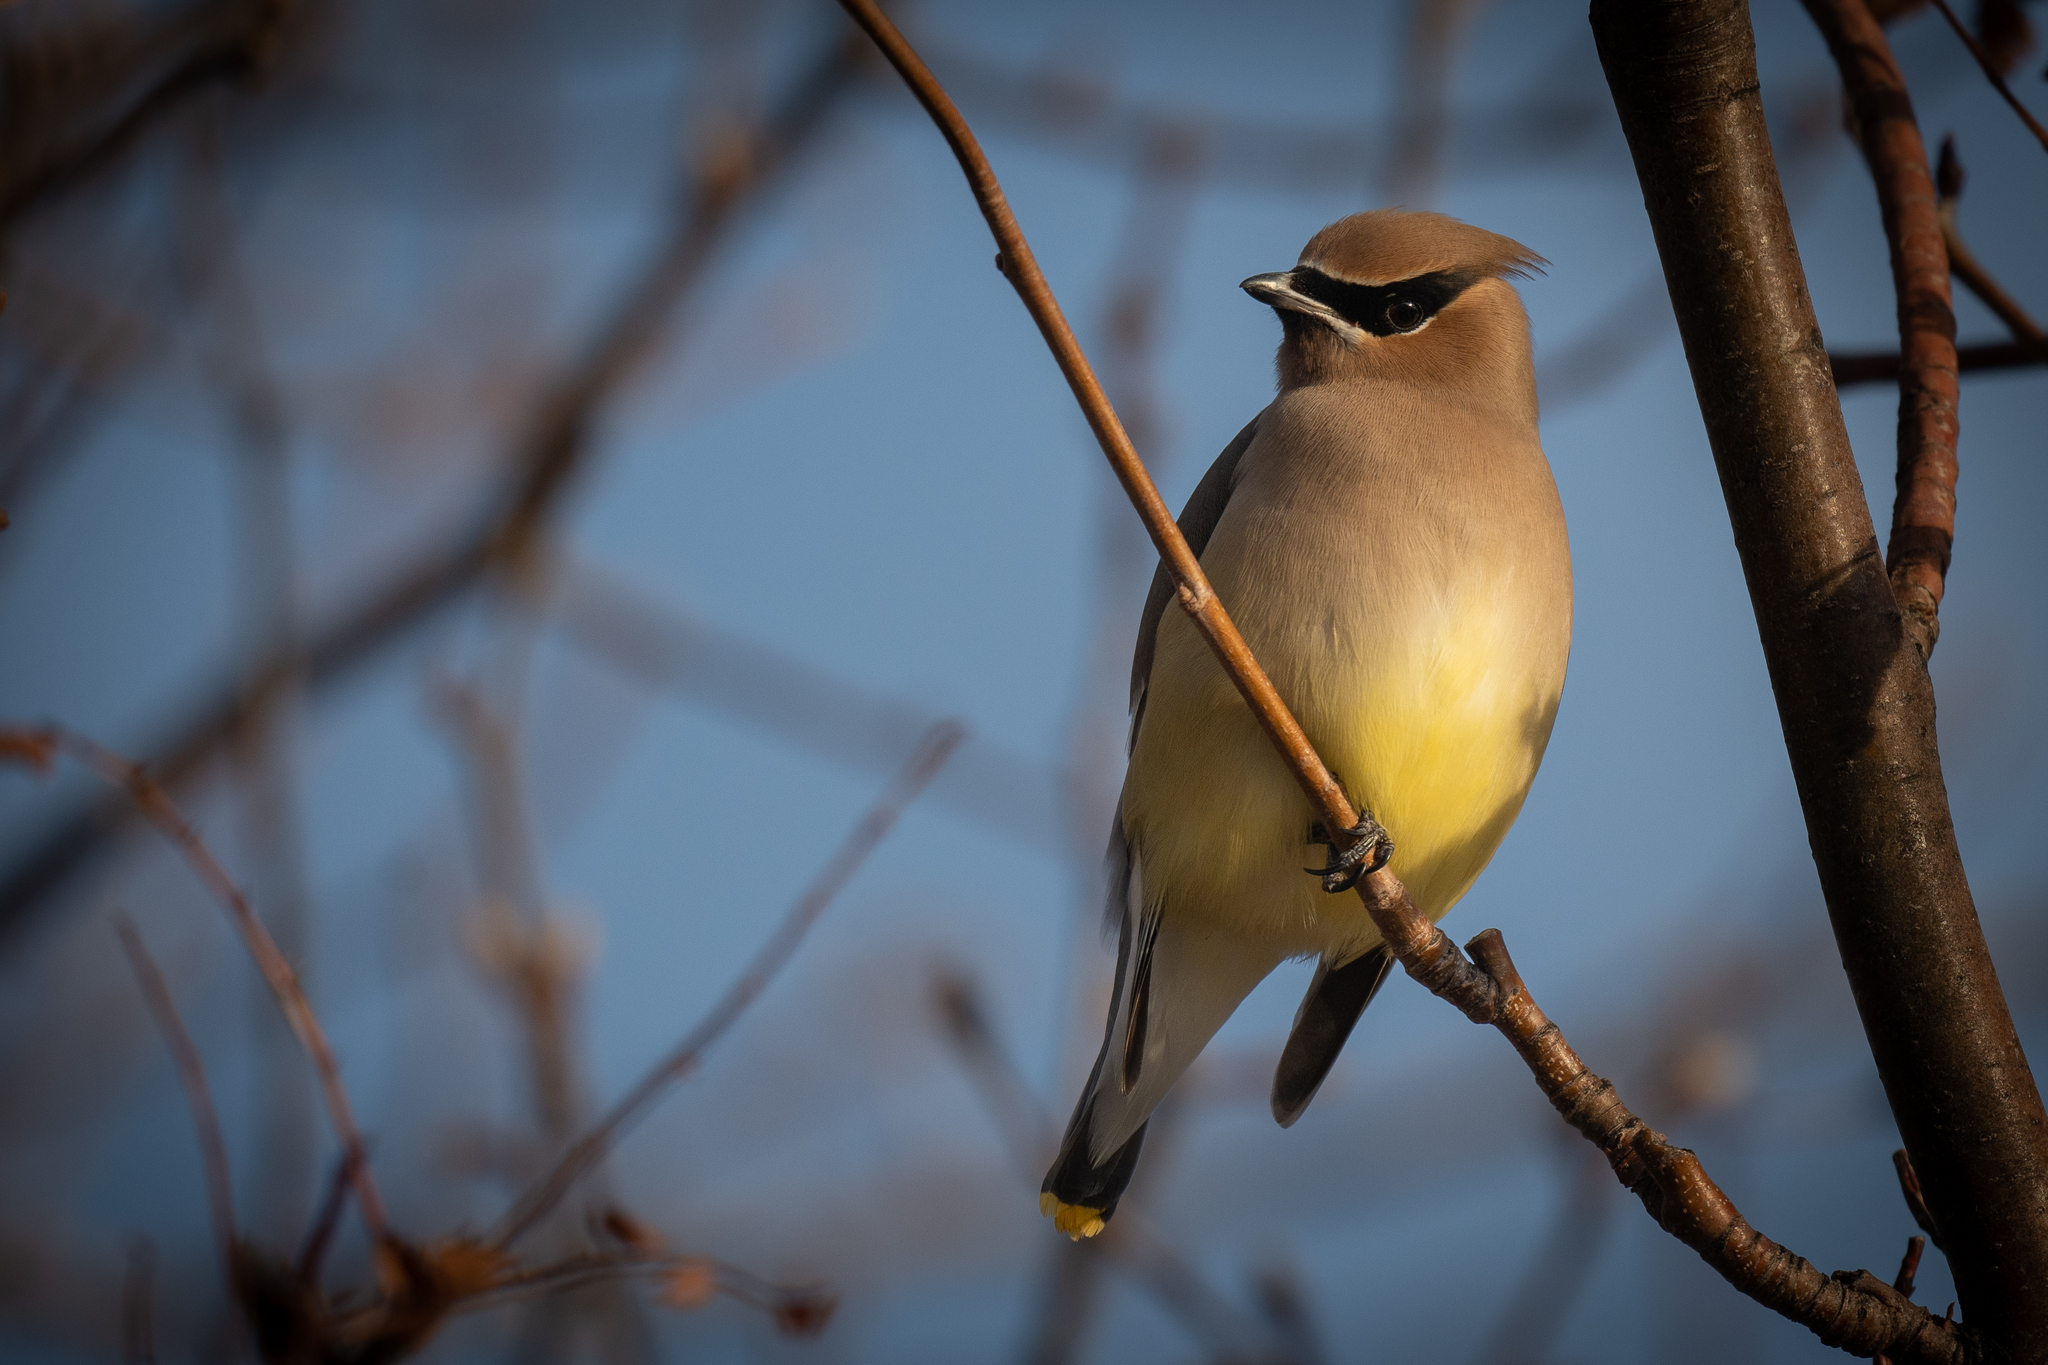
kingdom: Animalia
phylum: Chordata
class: Aves
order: Passeriformes
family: Bombycillidae
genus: Bombycilla
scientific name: Bombycilla cedrorum
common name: Cedar waxwing
